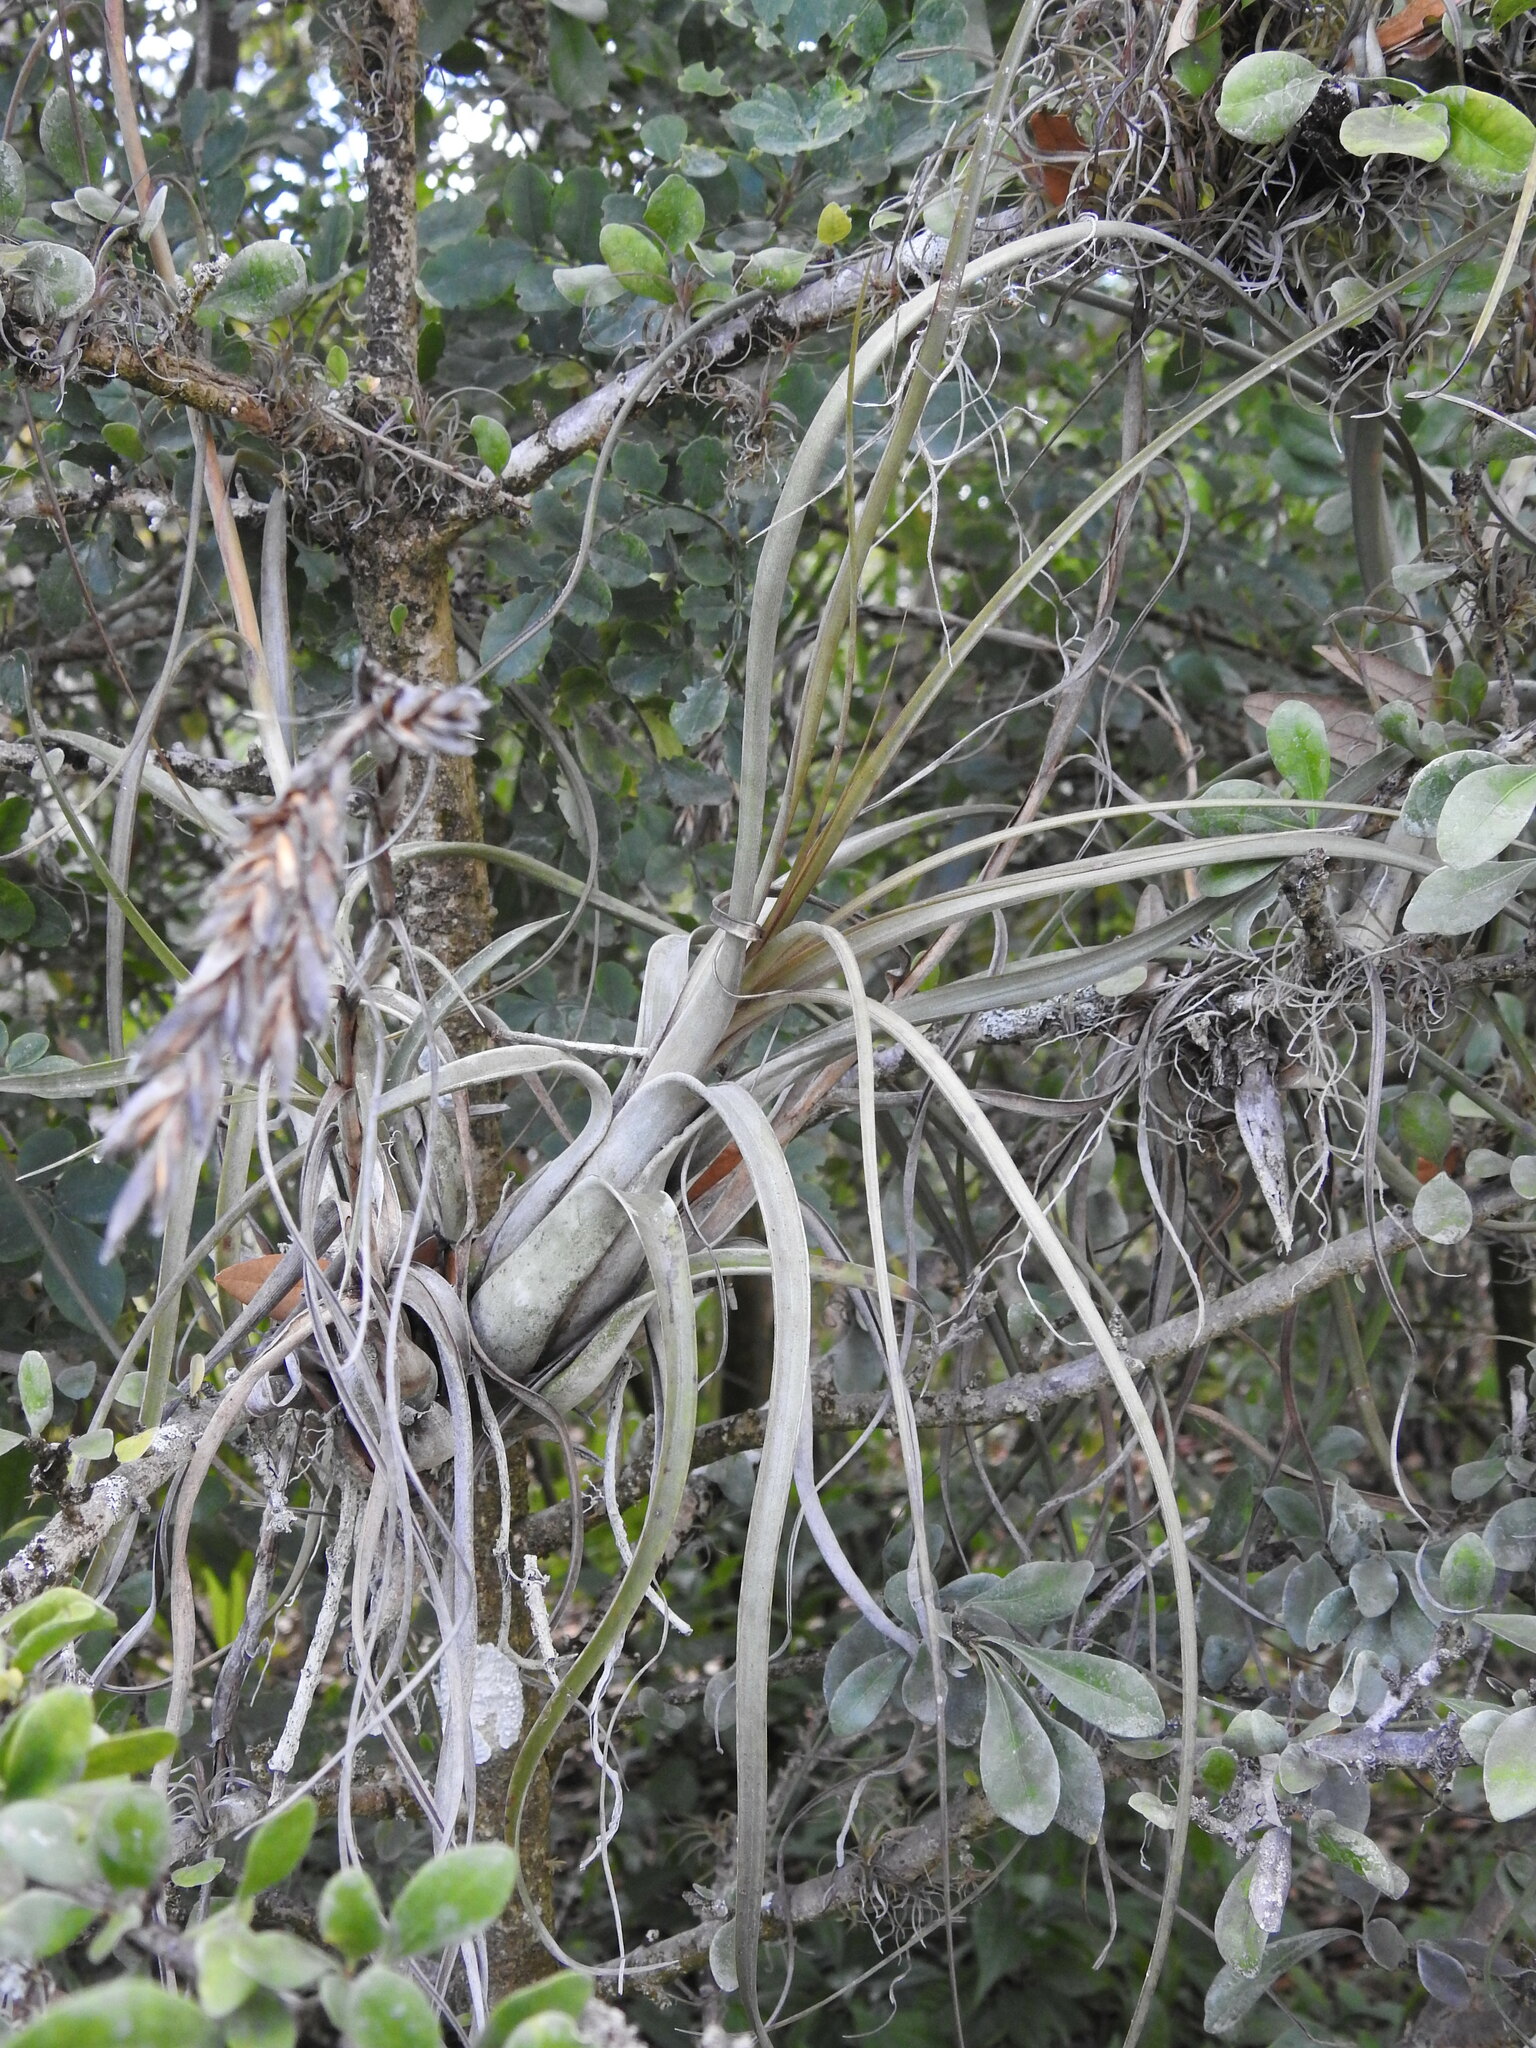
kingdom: Plantae
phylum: Tracheophyta
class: Liliopsida
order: Poales
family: Bromeliaceae
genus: Tillandsia
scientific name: Tillandsia balbisiana
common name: Northern needleleaf
